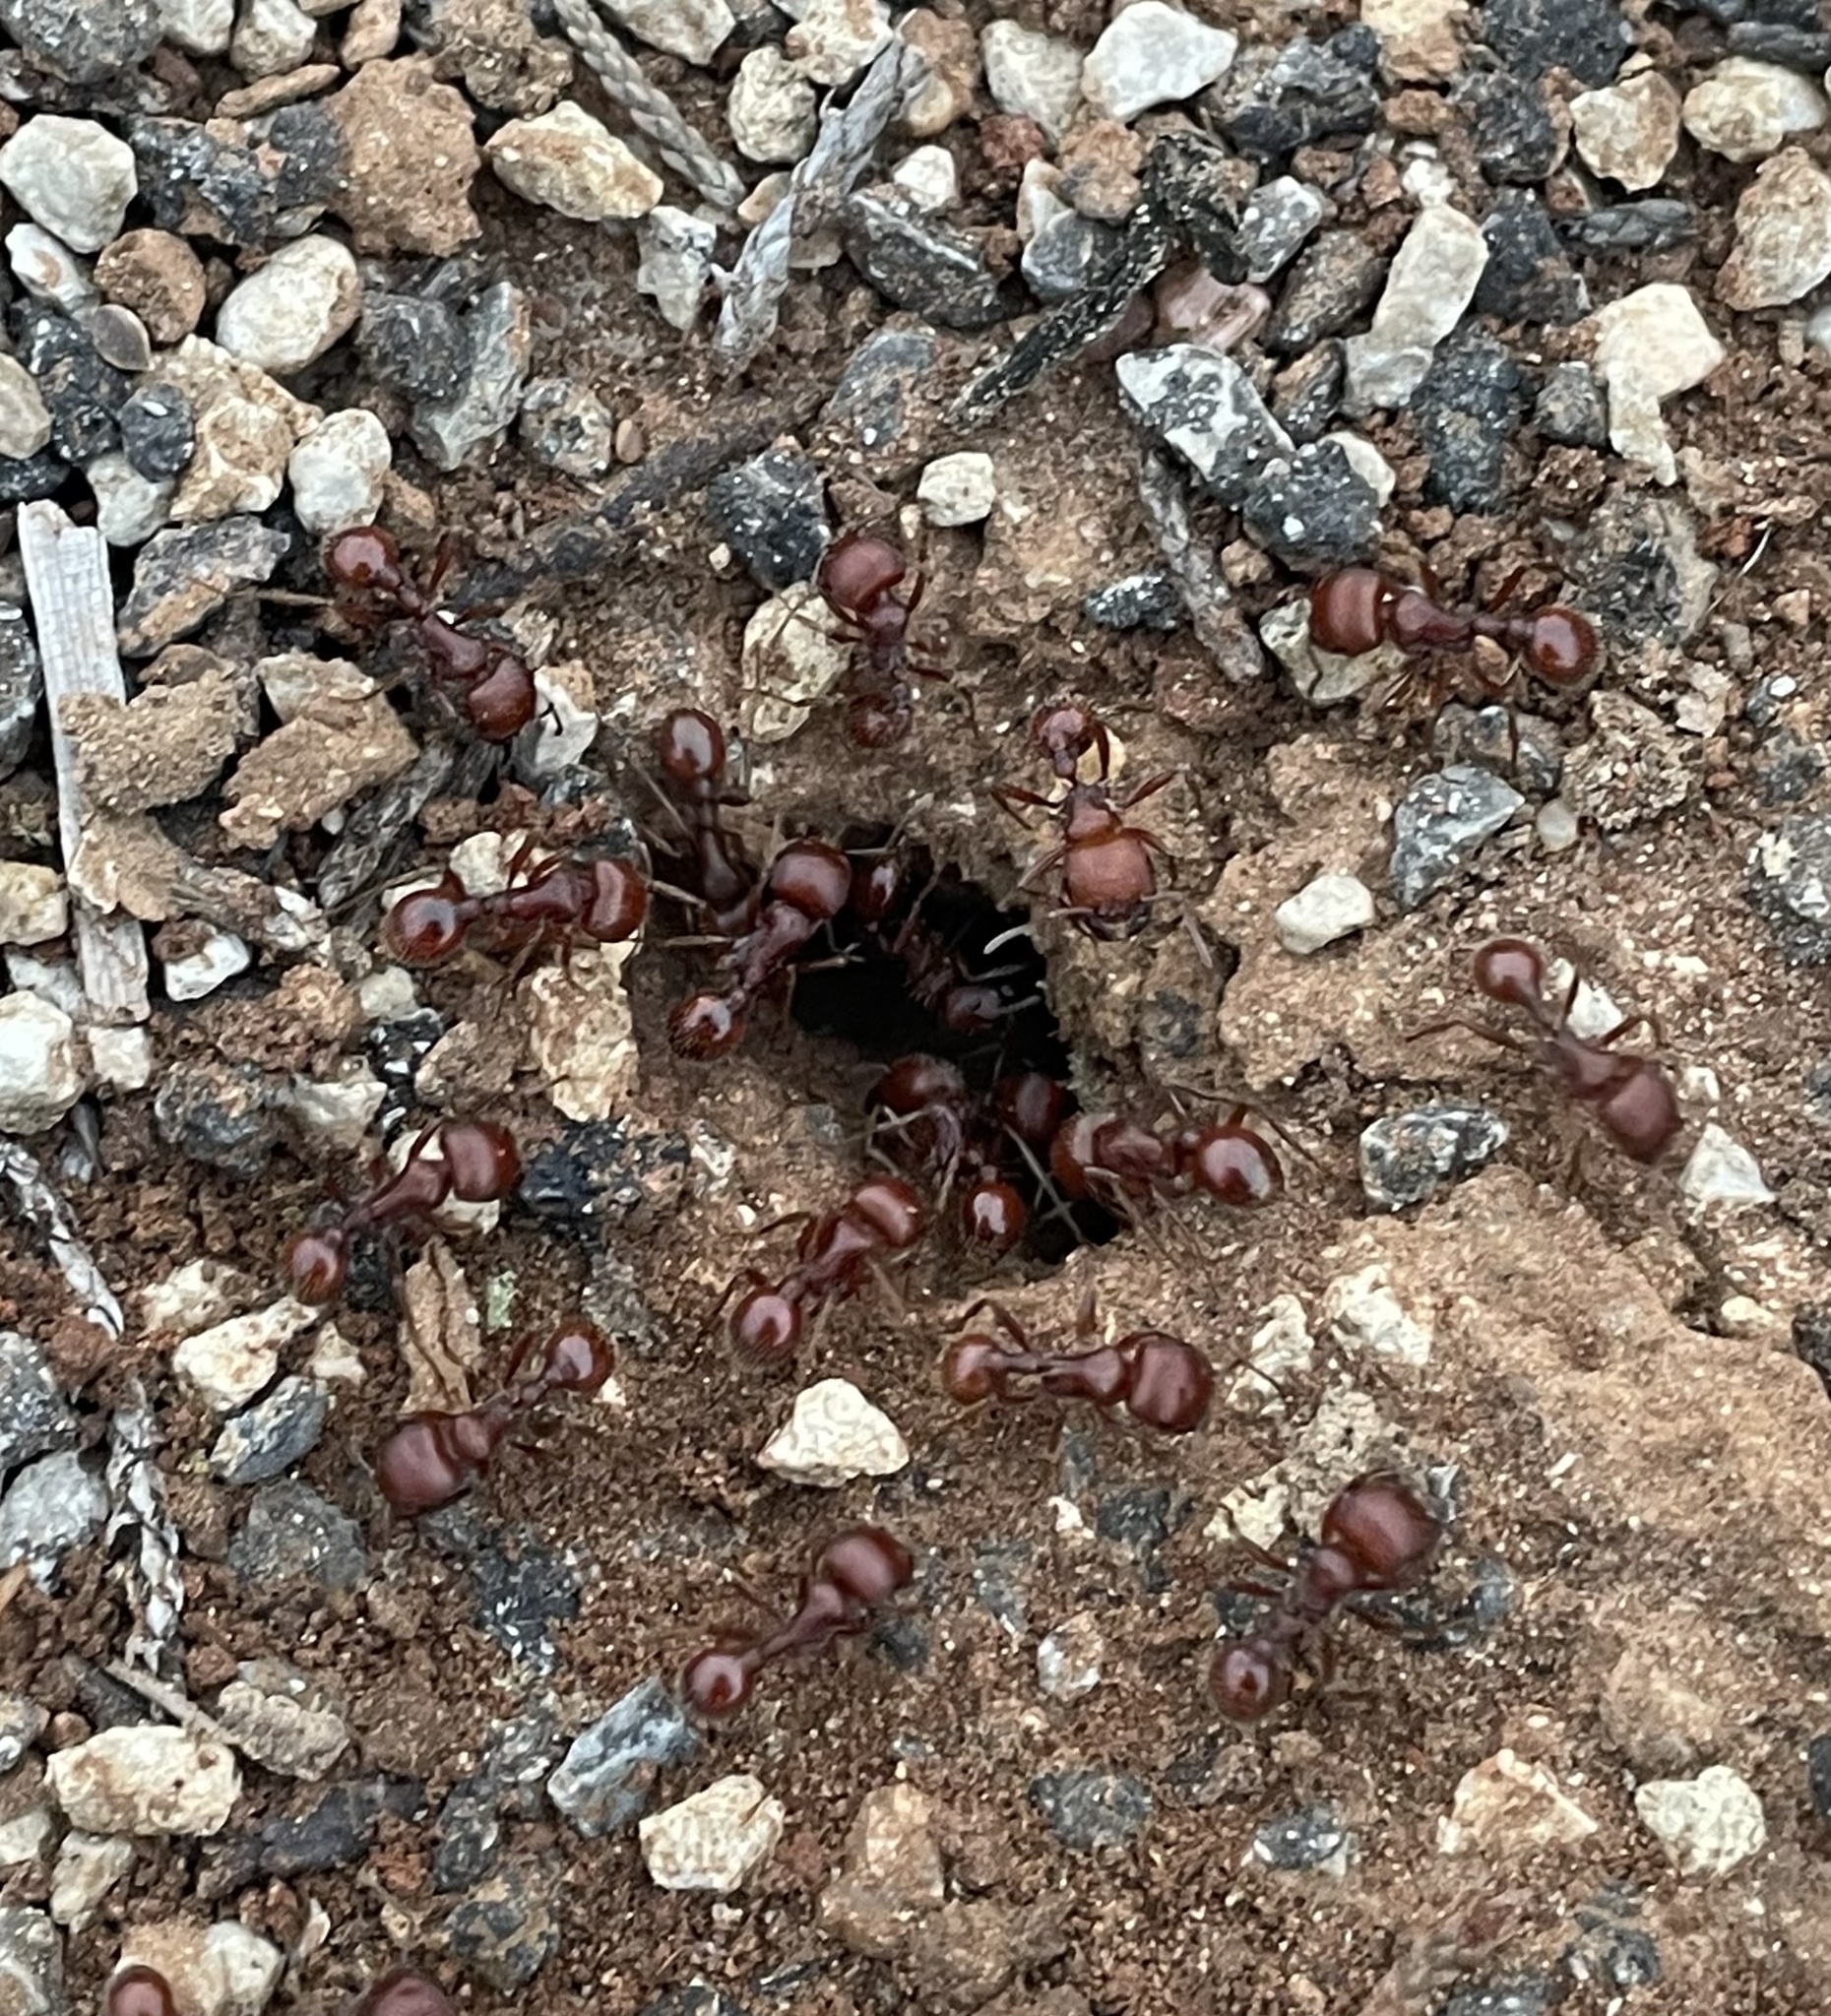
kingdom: Animalia
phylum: Arthropoda
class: Insecta
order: Hymenoptera
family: Formicidae
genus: Pogonomyrmex
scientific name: Pogonomyrmex barbatus
